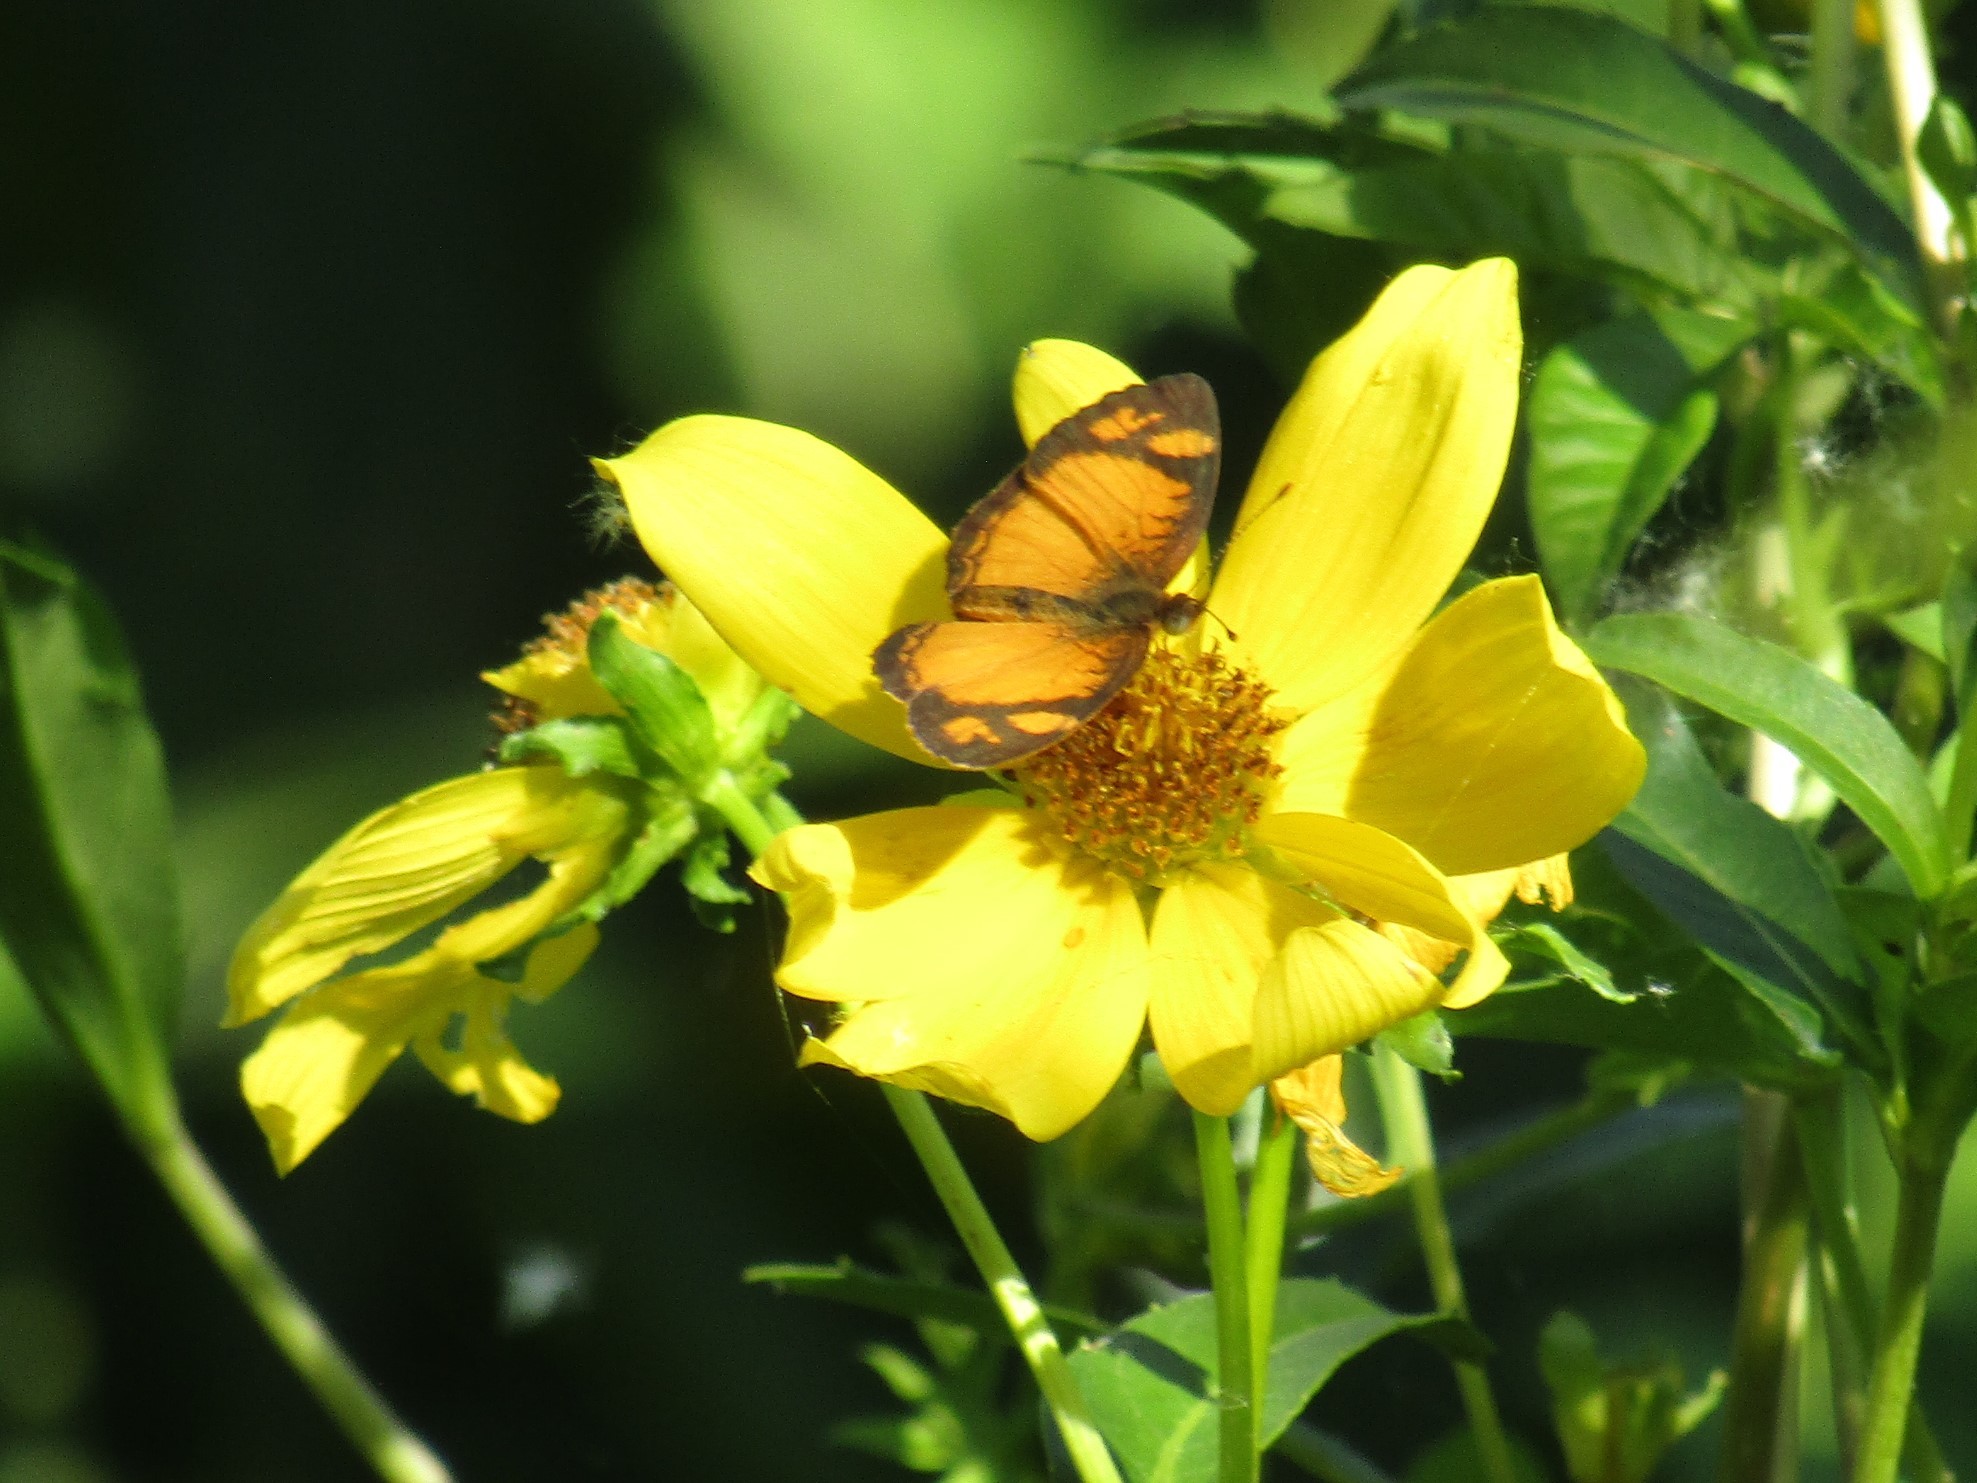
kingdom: Animalia
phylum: Arthropoda
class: Insecta
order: Lepidoptera
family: Nymphalidae
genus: Tegosa
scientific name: Tegosa claudina
